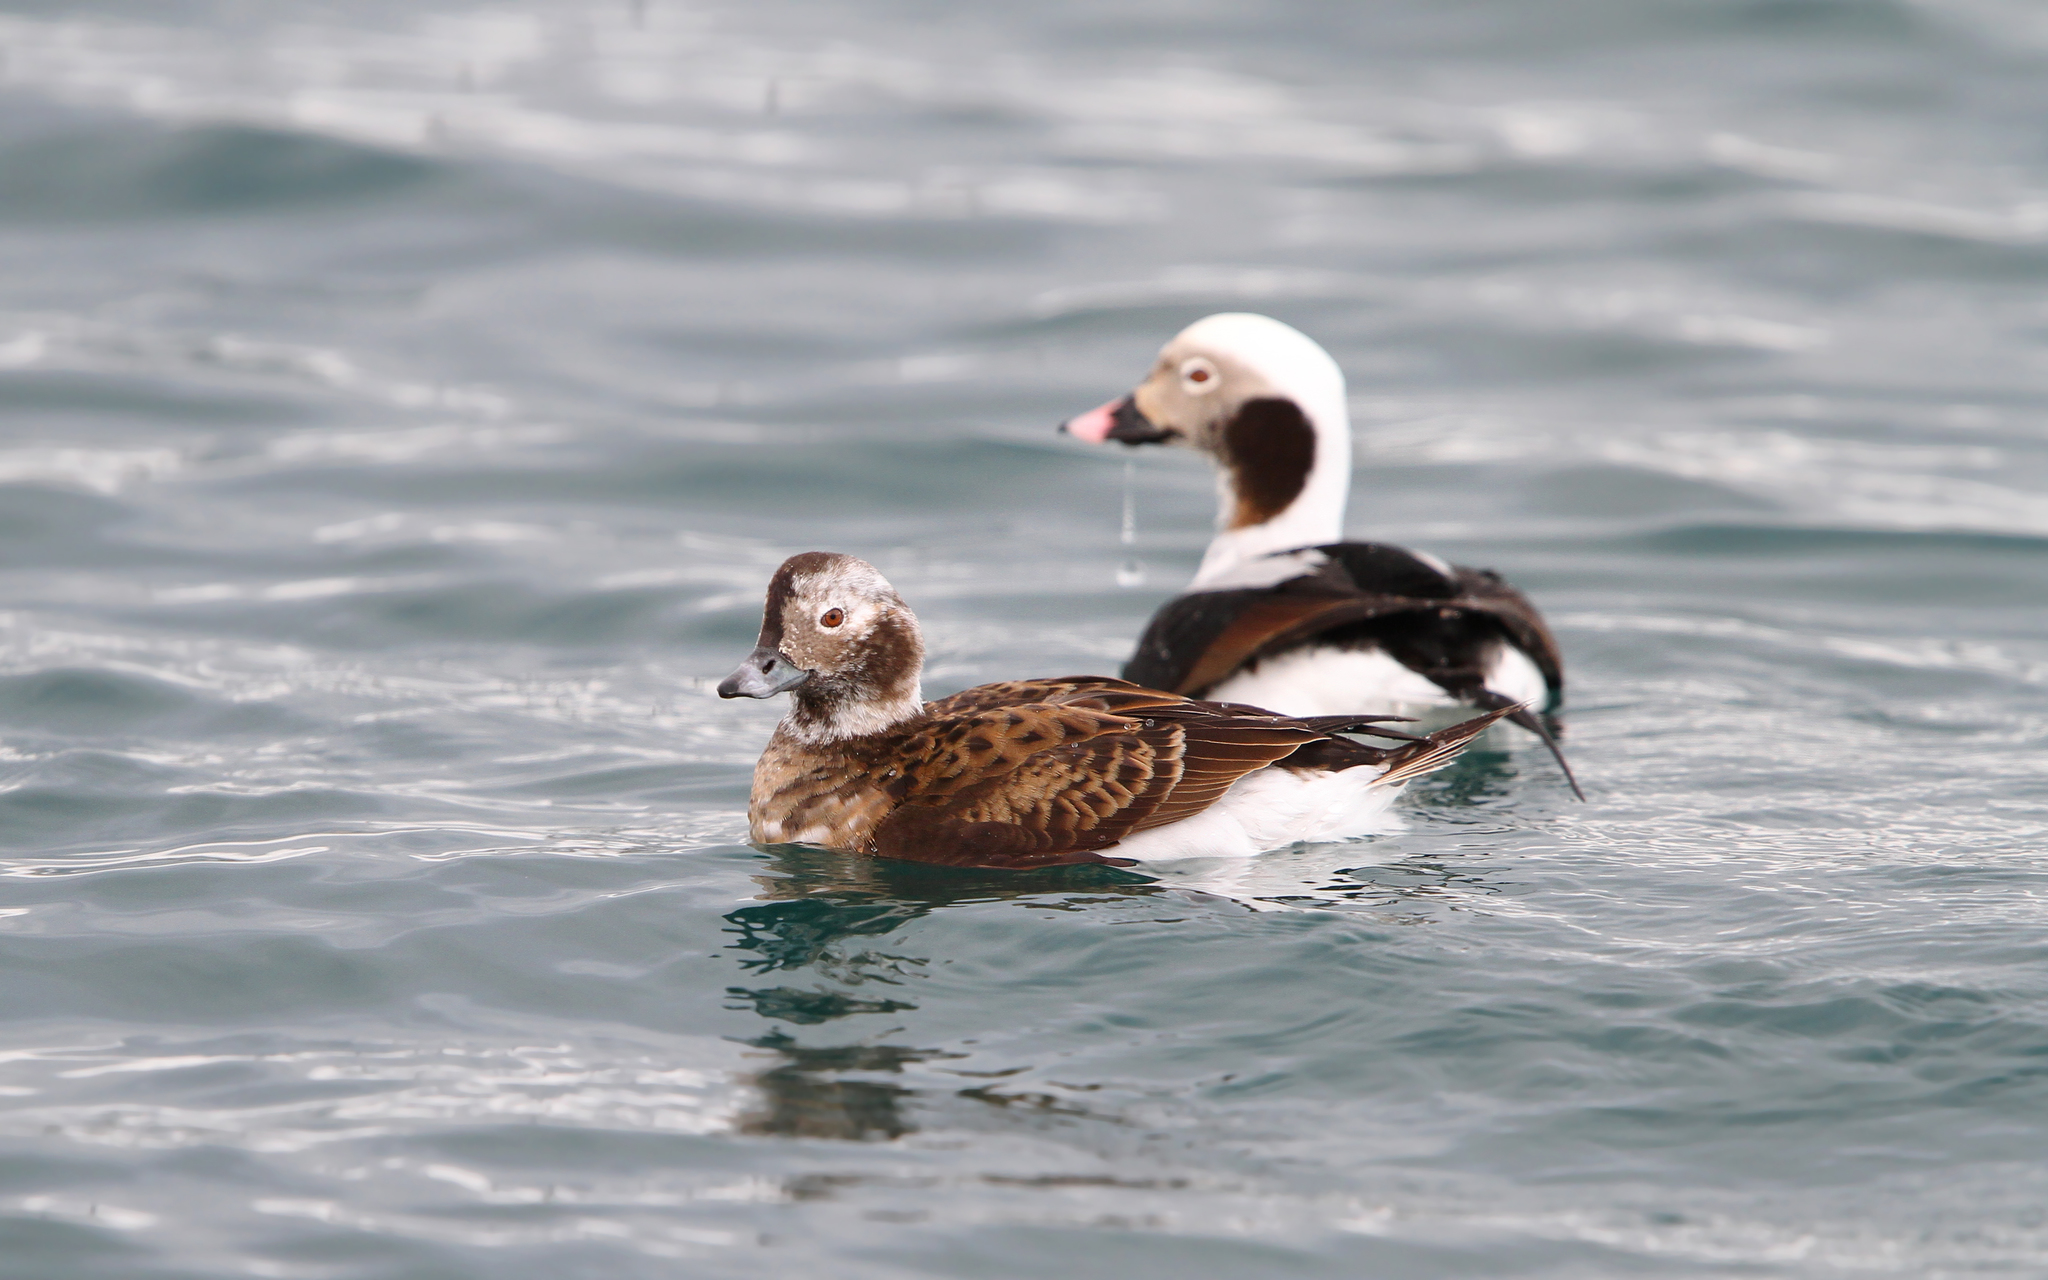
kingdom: Animalia
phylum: Chordata
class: Aves
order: Anseriformes
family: Anatidae
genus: Clangula
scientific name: Clangula hyemalis
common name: Long-tailed duck
